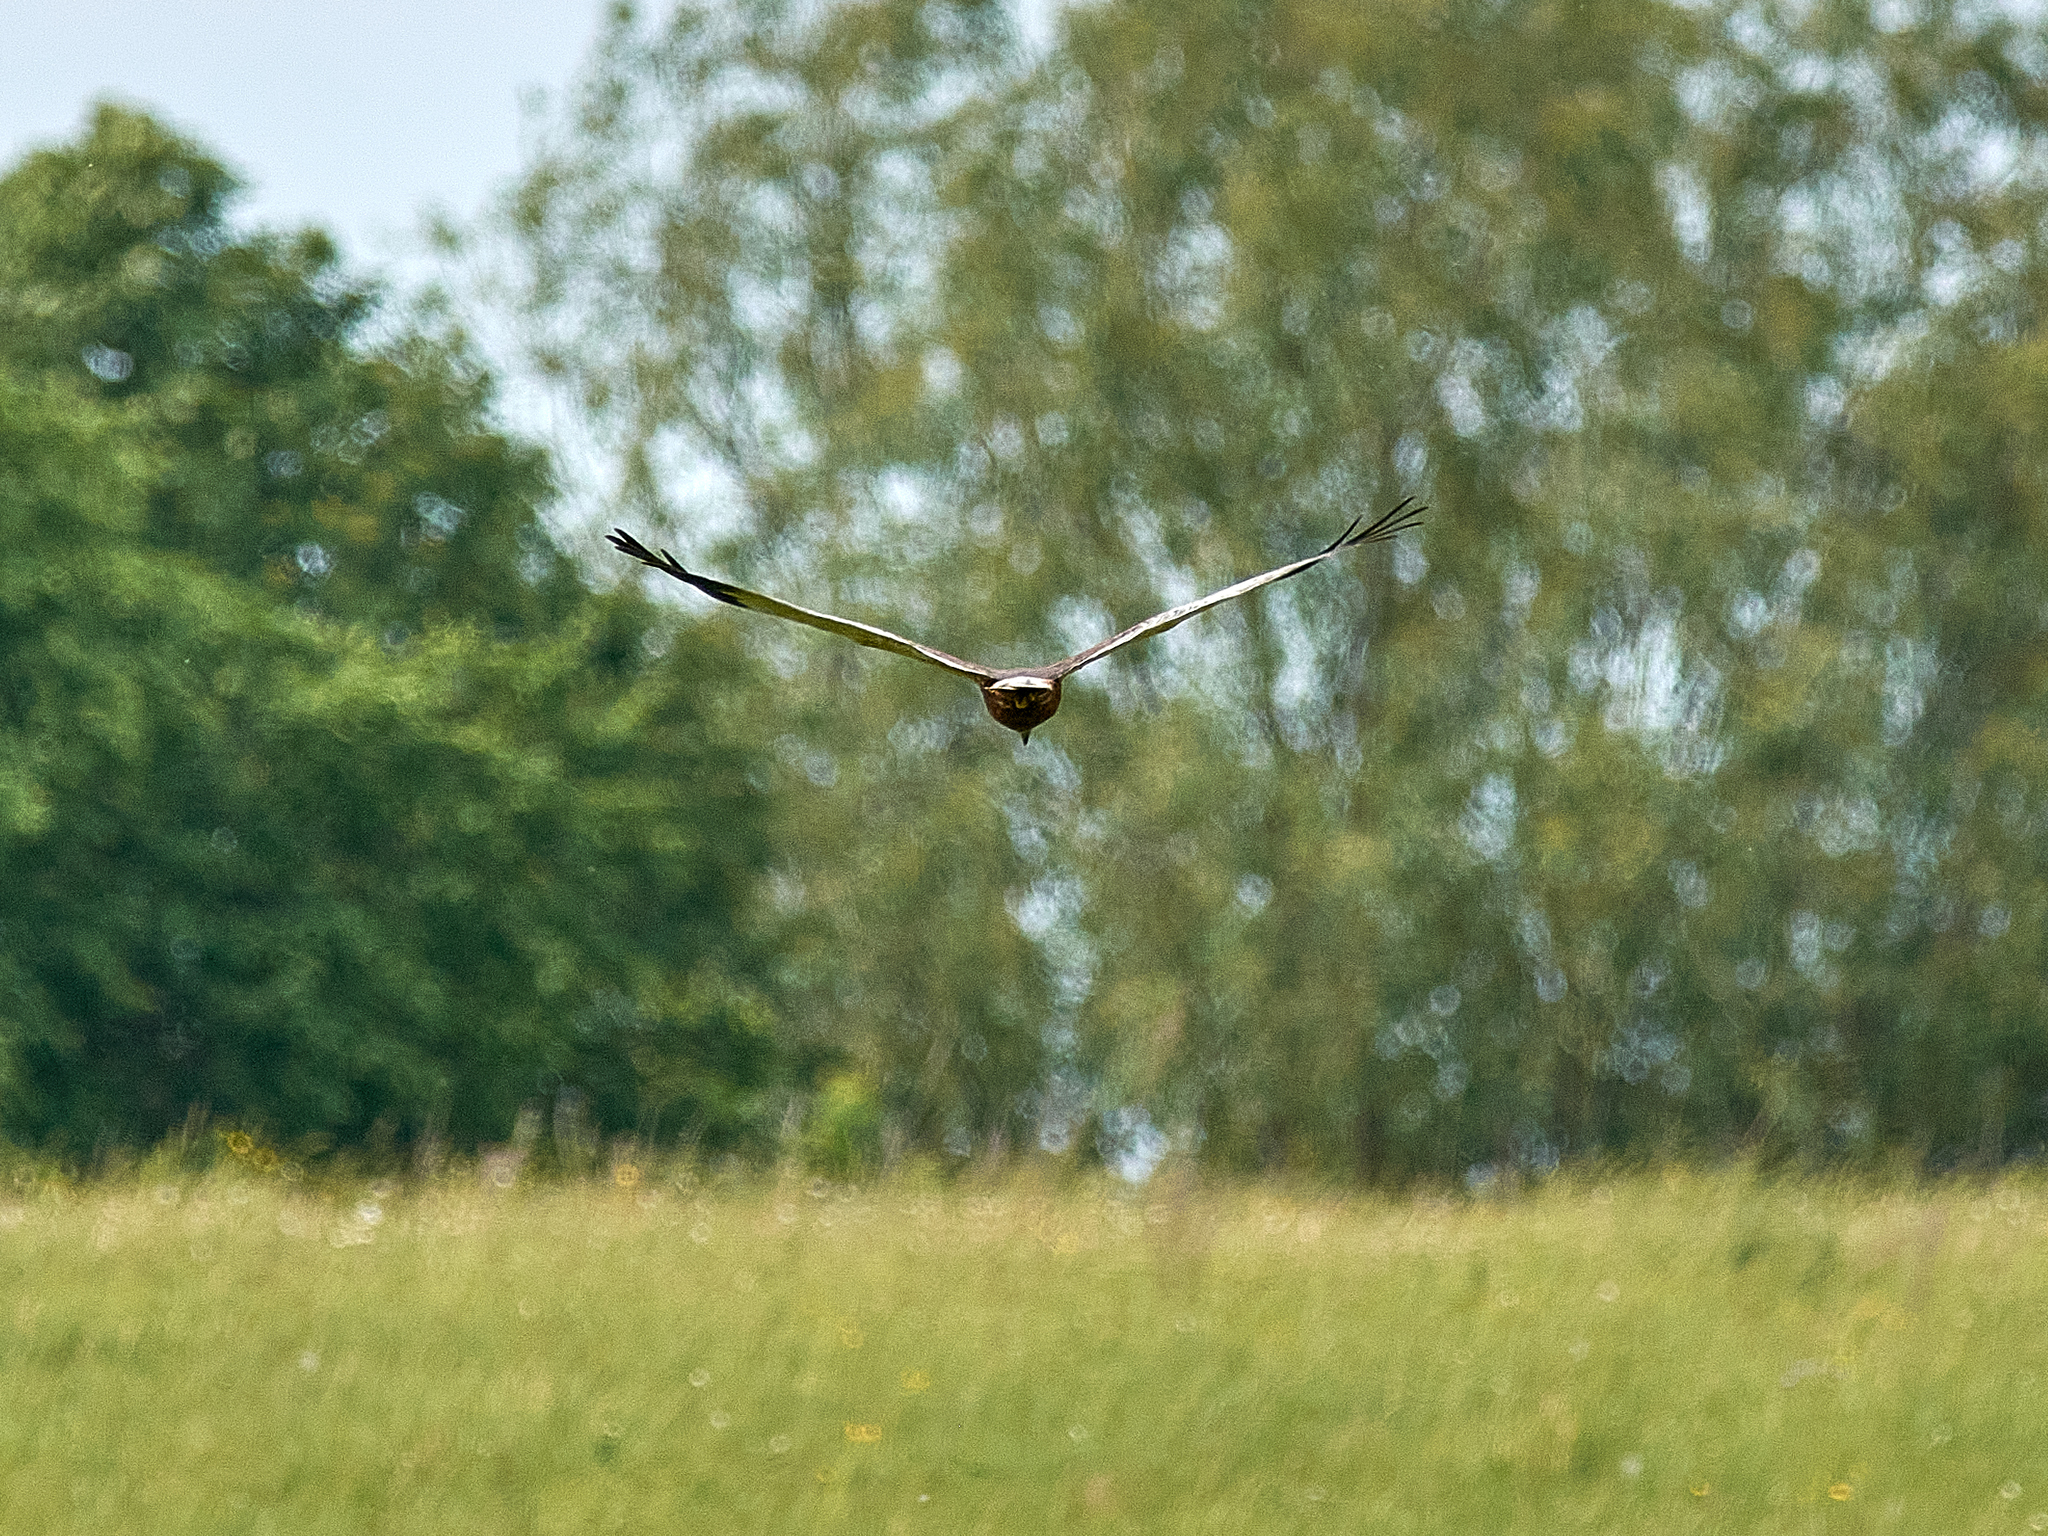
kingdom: Animalia
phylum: Chordata
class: Aves
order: Accipitriformes
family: Accipitridae
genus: Circus
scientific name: Circus aeruginosus
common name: Western marsh harrier
